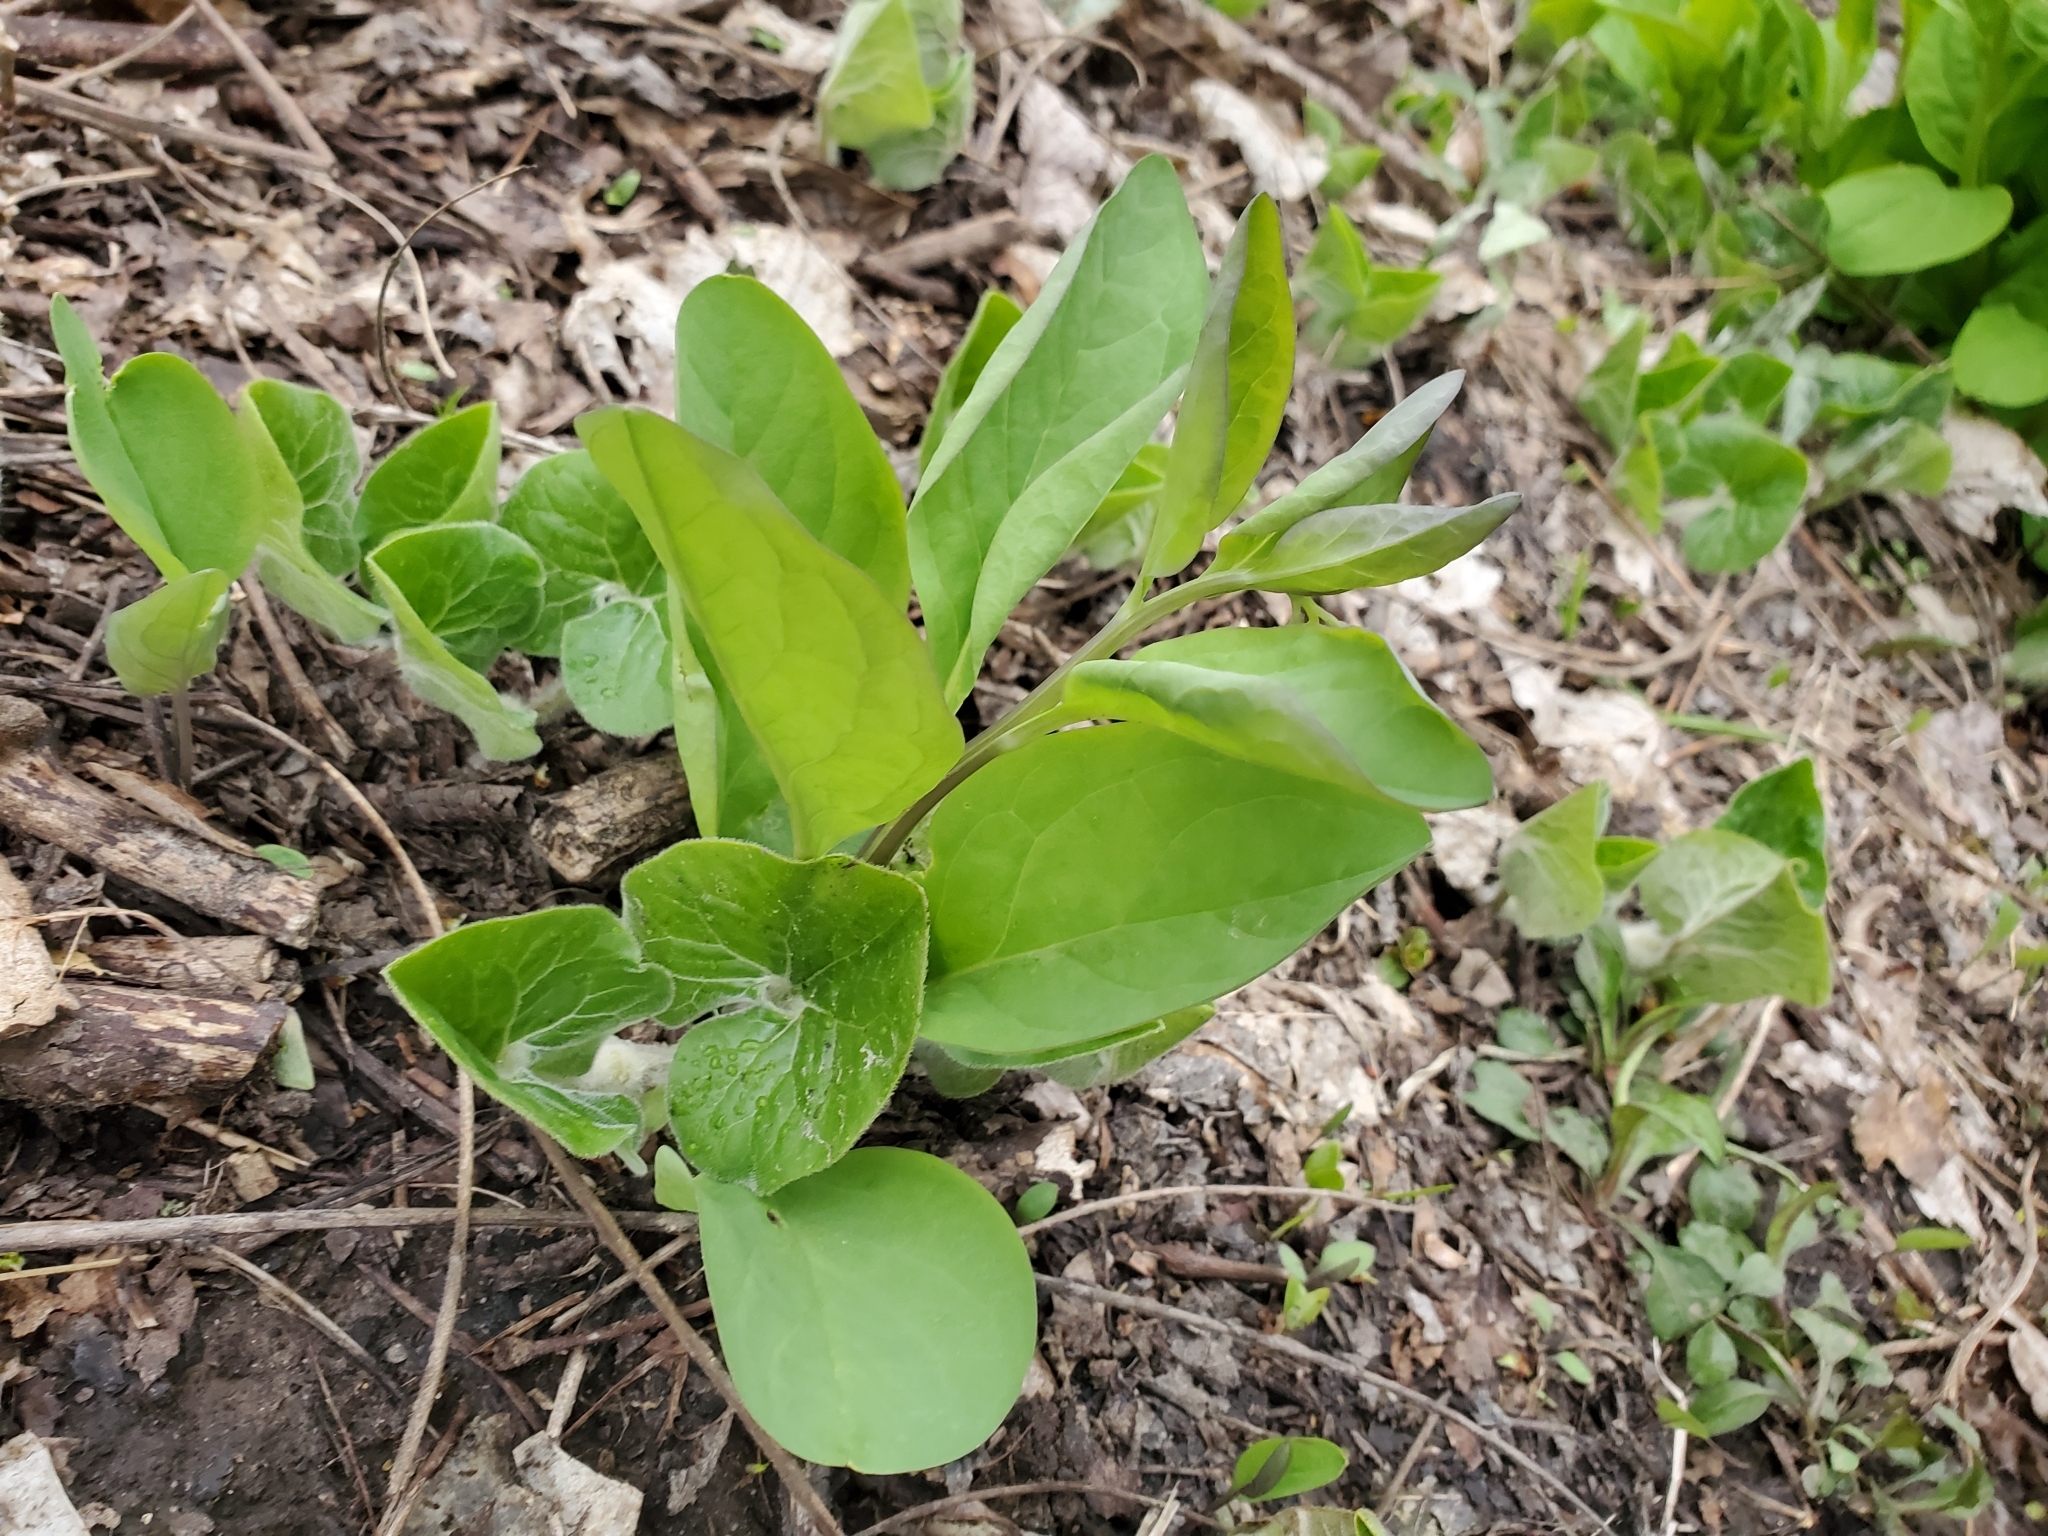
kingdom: Plantae
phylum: Tracheophyta
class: Magnoliopsida
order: Piperales
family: Aristolochiaceae
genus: Asarum
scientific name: Asarum canadense
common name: Wild ginger
